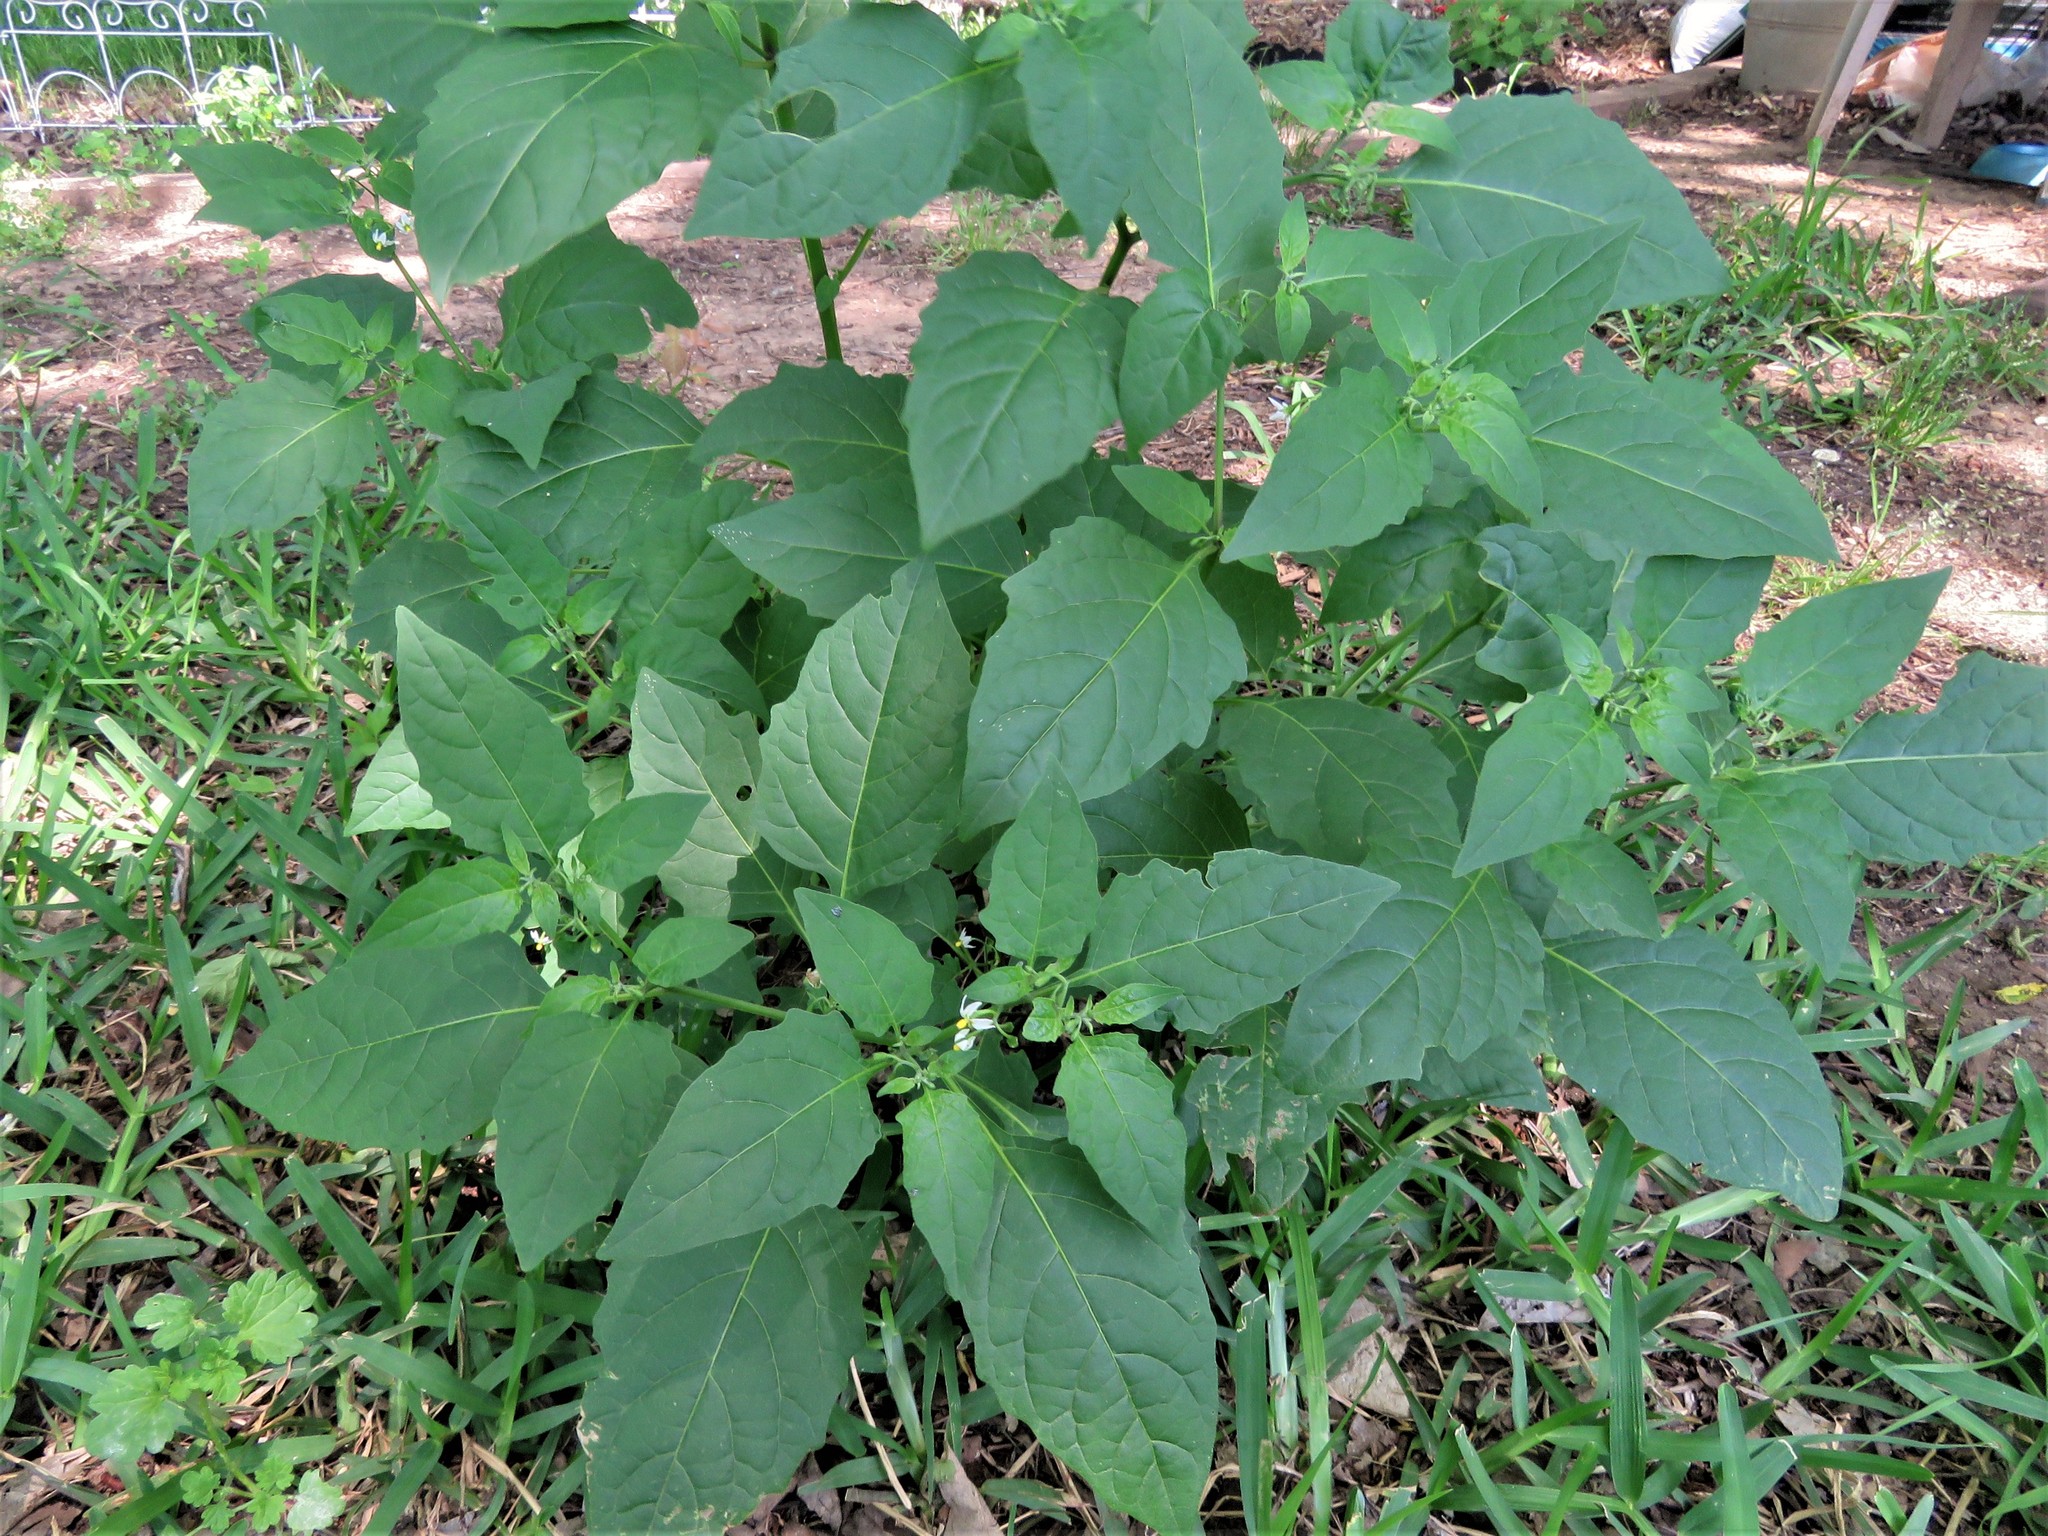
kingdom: Plantae
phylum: Tracheophyta
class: Magnoliopsida
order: Solanales
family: Solanaceae
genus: Solanum
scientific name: Solanum emulans
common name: Eastern black nightshade
